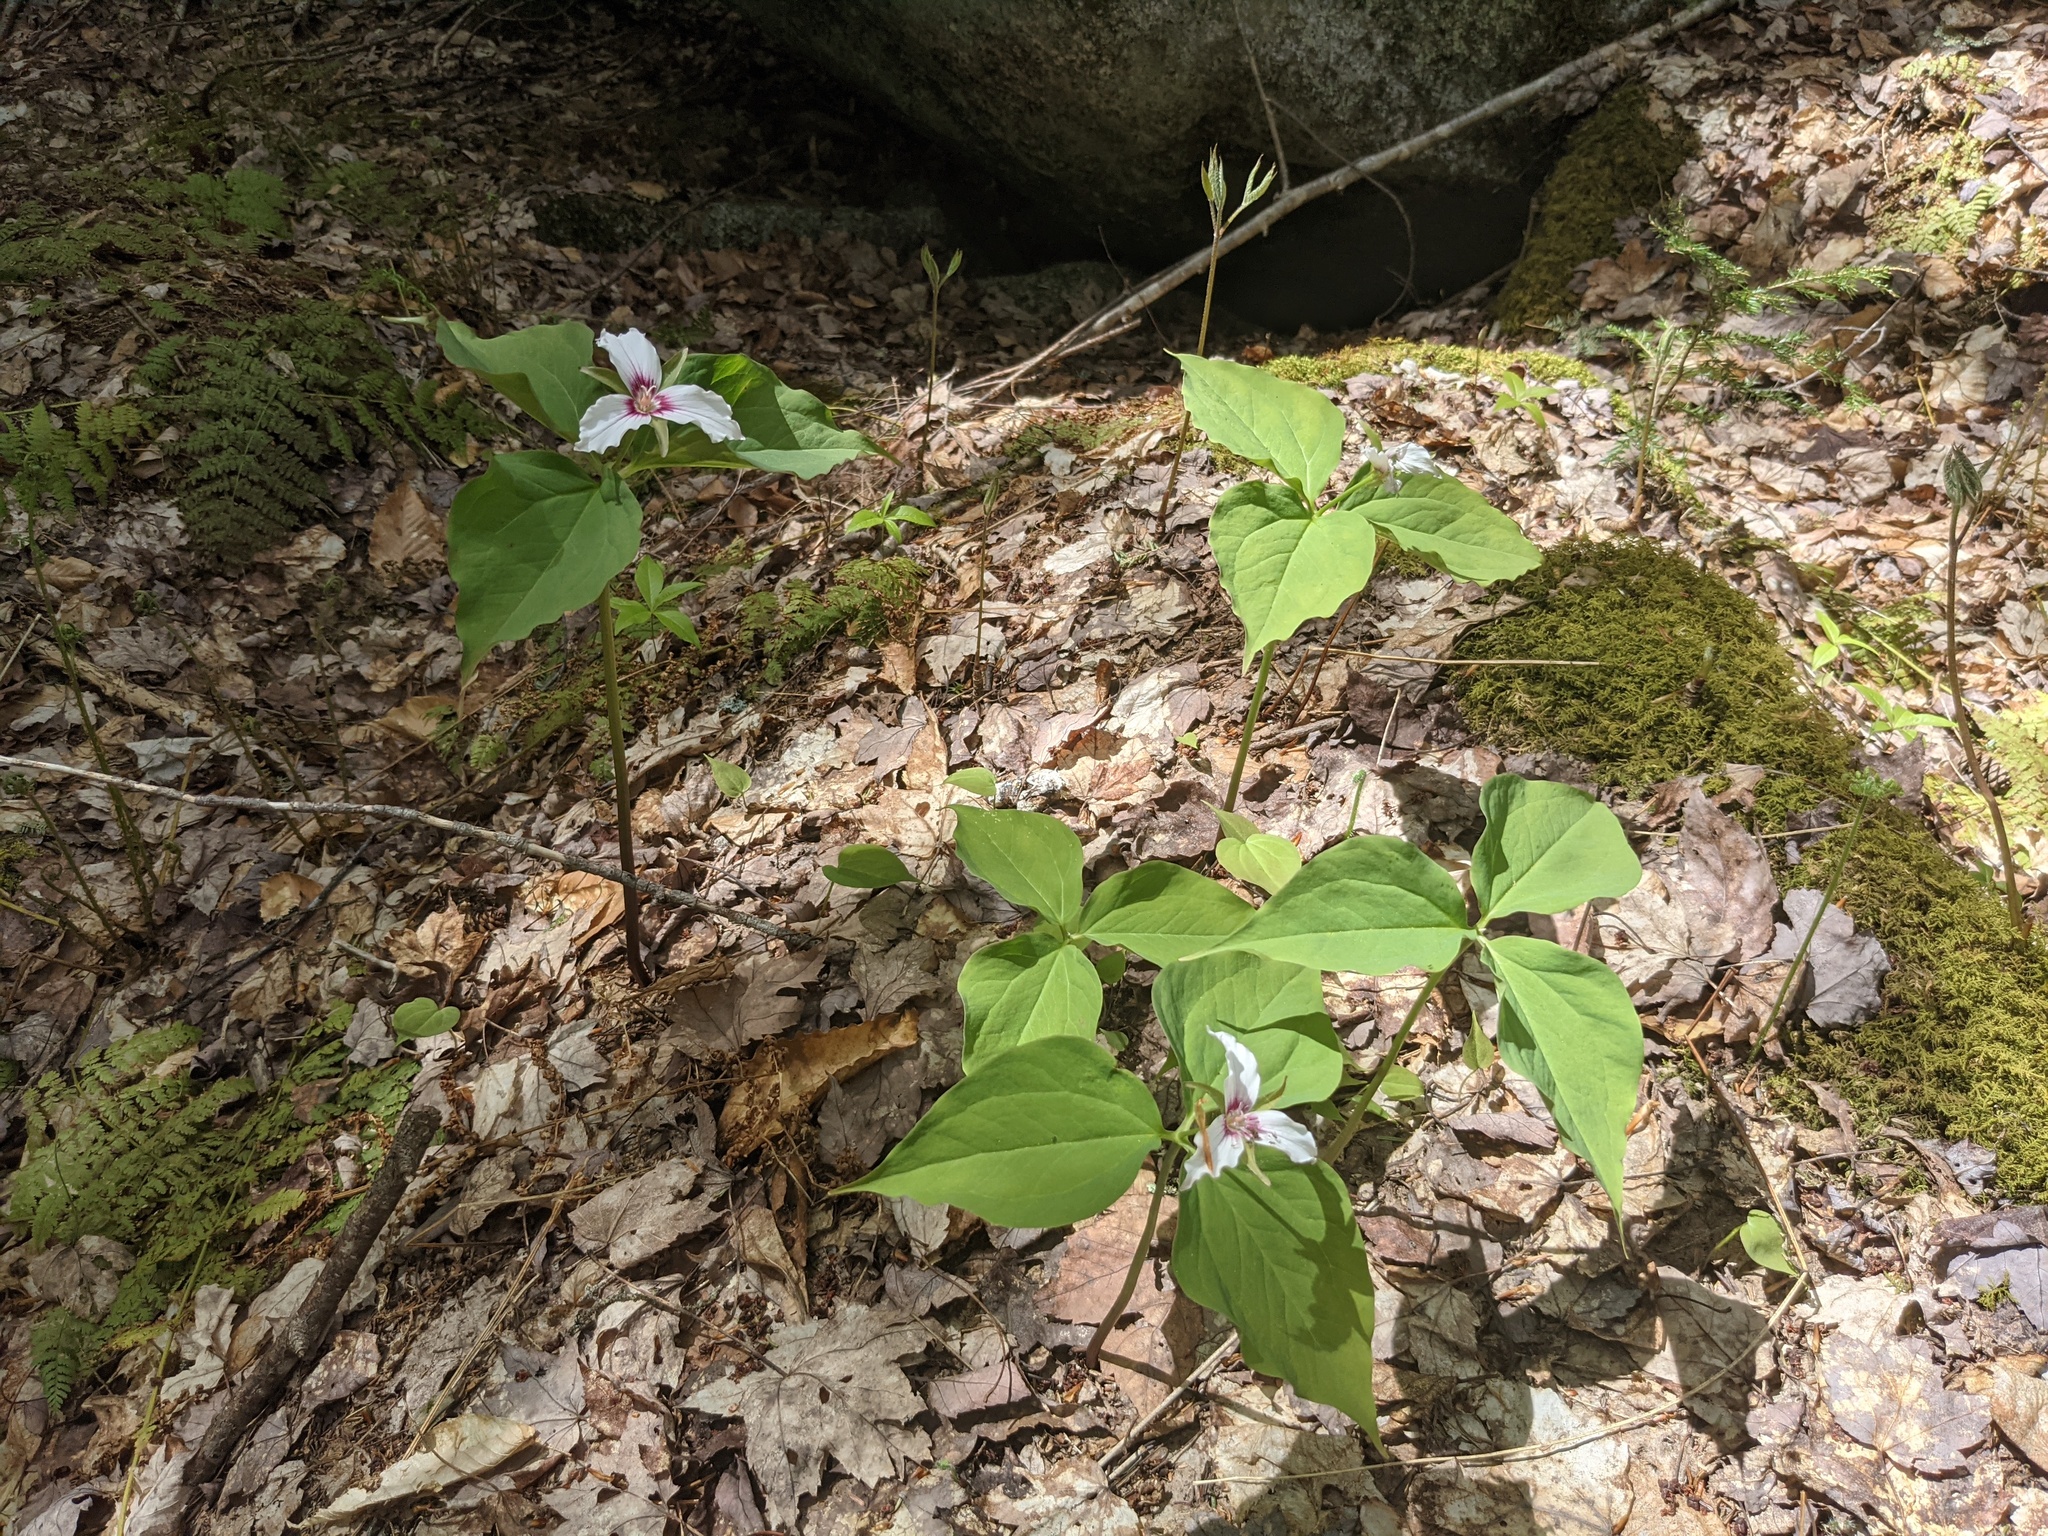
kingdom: Plantae
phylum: Tracheophyta
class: Liliopsida
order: Liliales
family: Melanthiaceae
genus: Trillium
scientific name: Trillium undulatum
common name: Paint trillium
